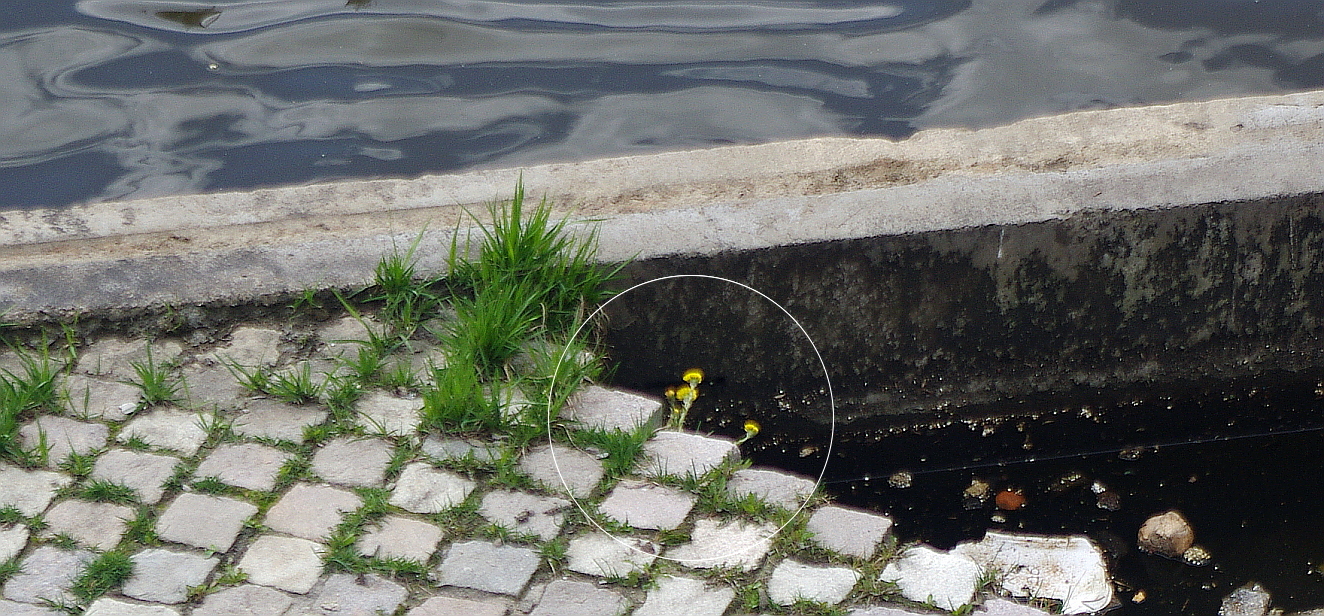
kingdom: Plantae
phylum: Tracheophyta
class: Magnoliopsida
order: Asterales
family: Asteraceae
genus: Tussilago
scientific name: Tussilago farfara
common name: Coltsfoot
